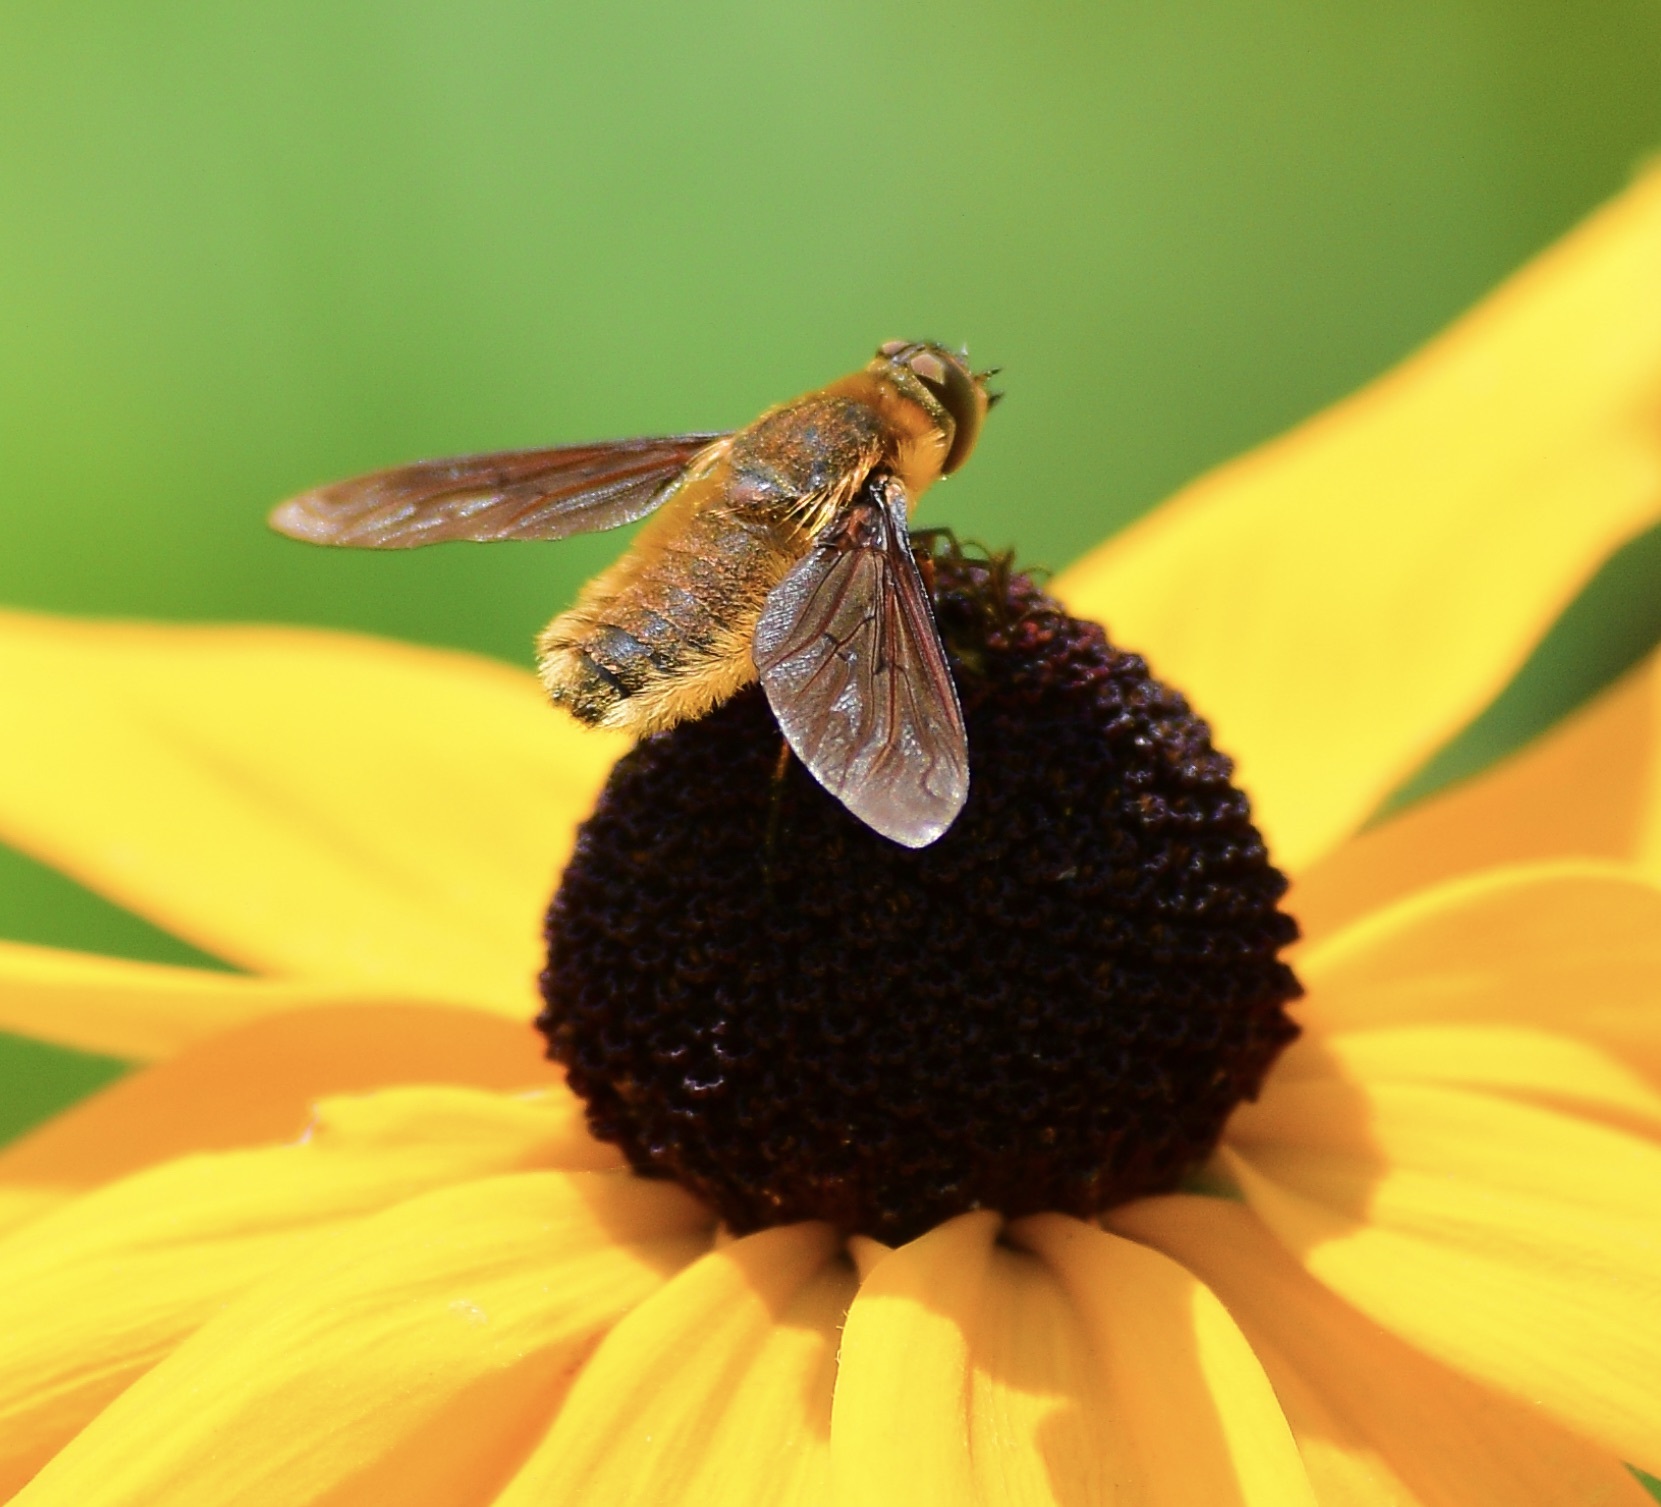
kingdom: Animalia
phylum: Arthropoda
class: Insecta
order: Diptera
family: Bombyliidae
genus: Poecilanthrax
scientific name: Poecilanthrax tegminipennis
